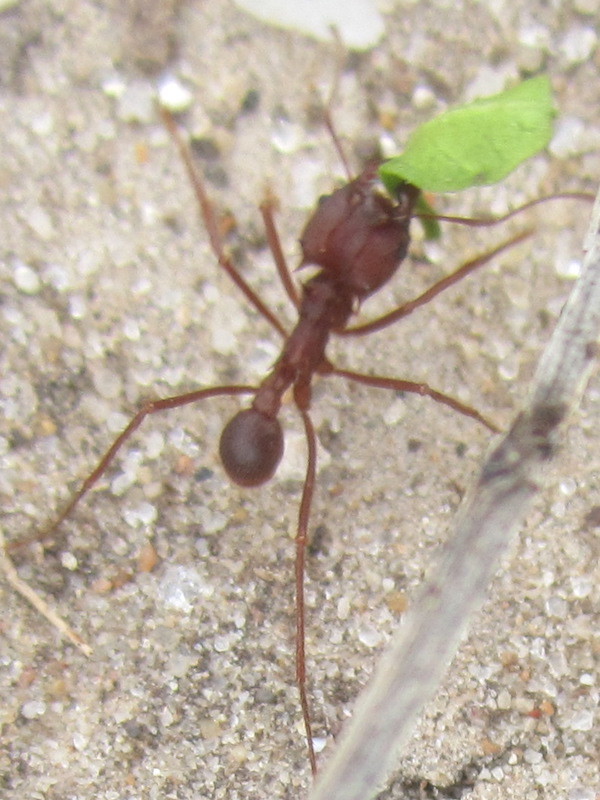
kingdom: Animalia
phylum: Arthropoda
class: Insecta
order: Hymenoptera
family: Formicidae
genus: Atta
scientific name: Atta texana
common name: Texas leafcutting ant
